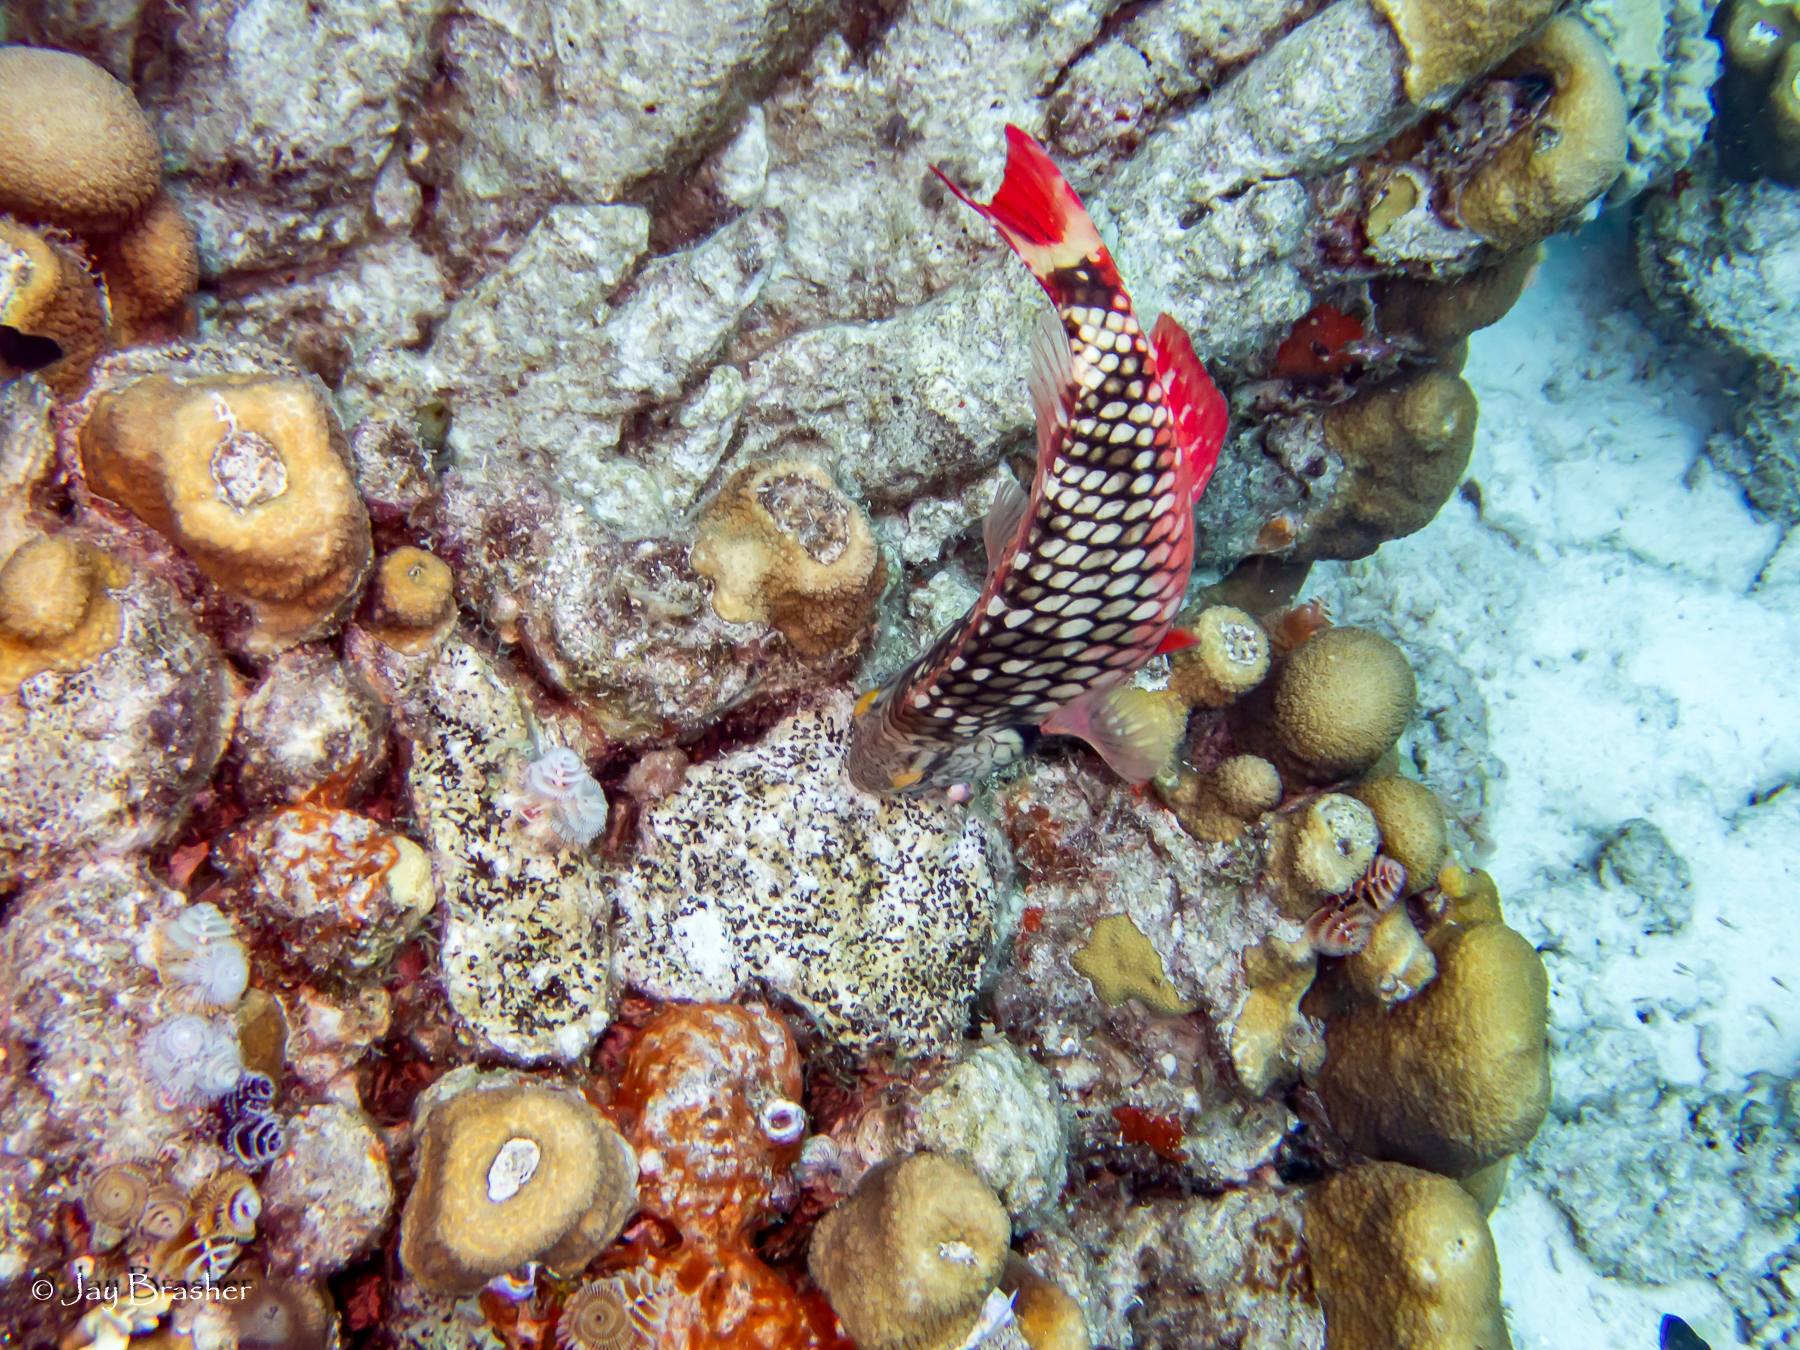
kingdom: Animalia
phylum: Annelida
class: Polychaeta
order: Sabellida
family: Serpulidae
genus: Spirobranchus
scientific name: Spirobranchus giganteus
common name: Christmas tree worm
